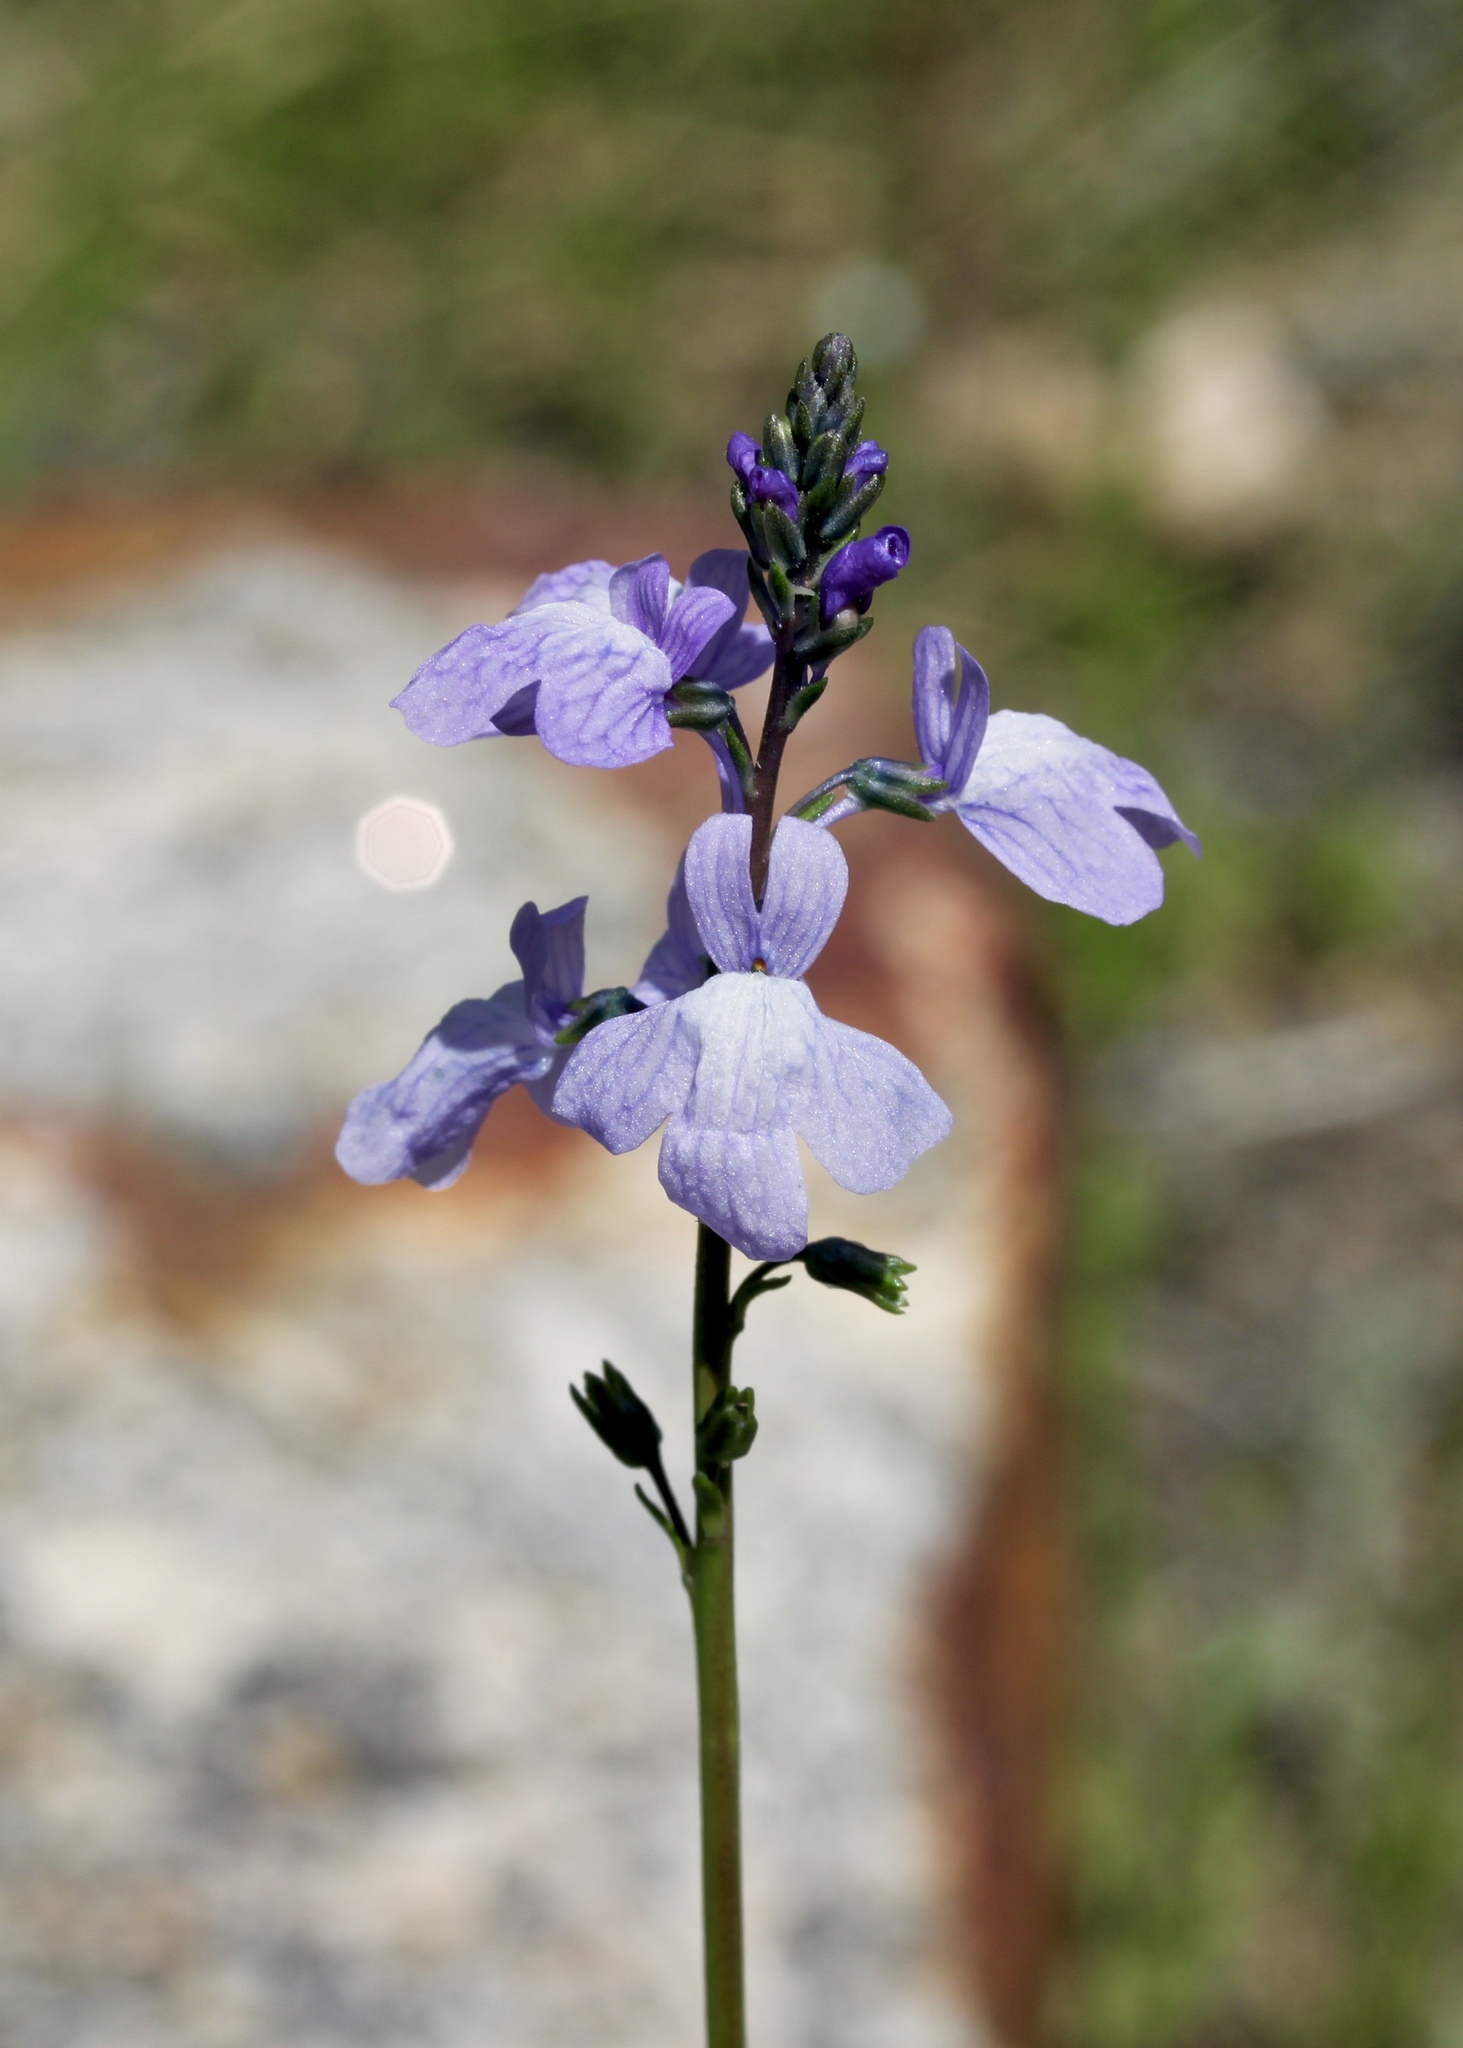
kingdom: Plantae
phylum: Tracheophyta
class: Magnoliopsida
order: Lamiales
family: Plantaginaceae
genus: Nuttallanthus
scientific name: Nuttallanthus texanus
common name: Texas toadflax
